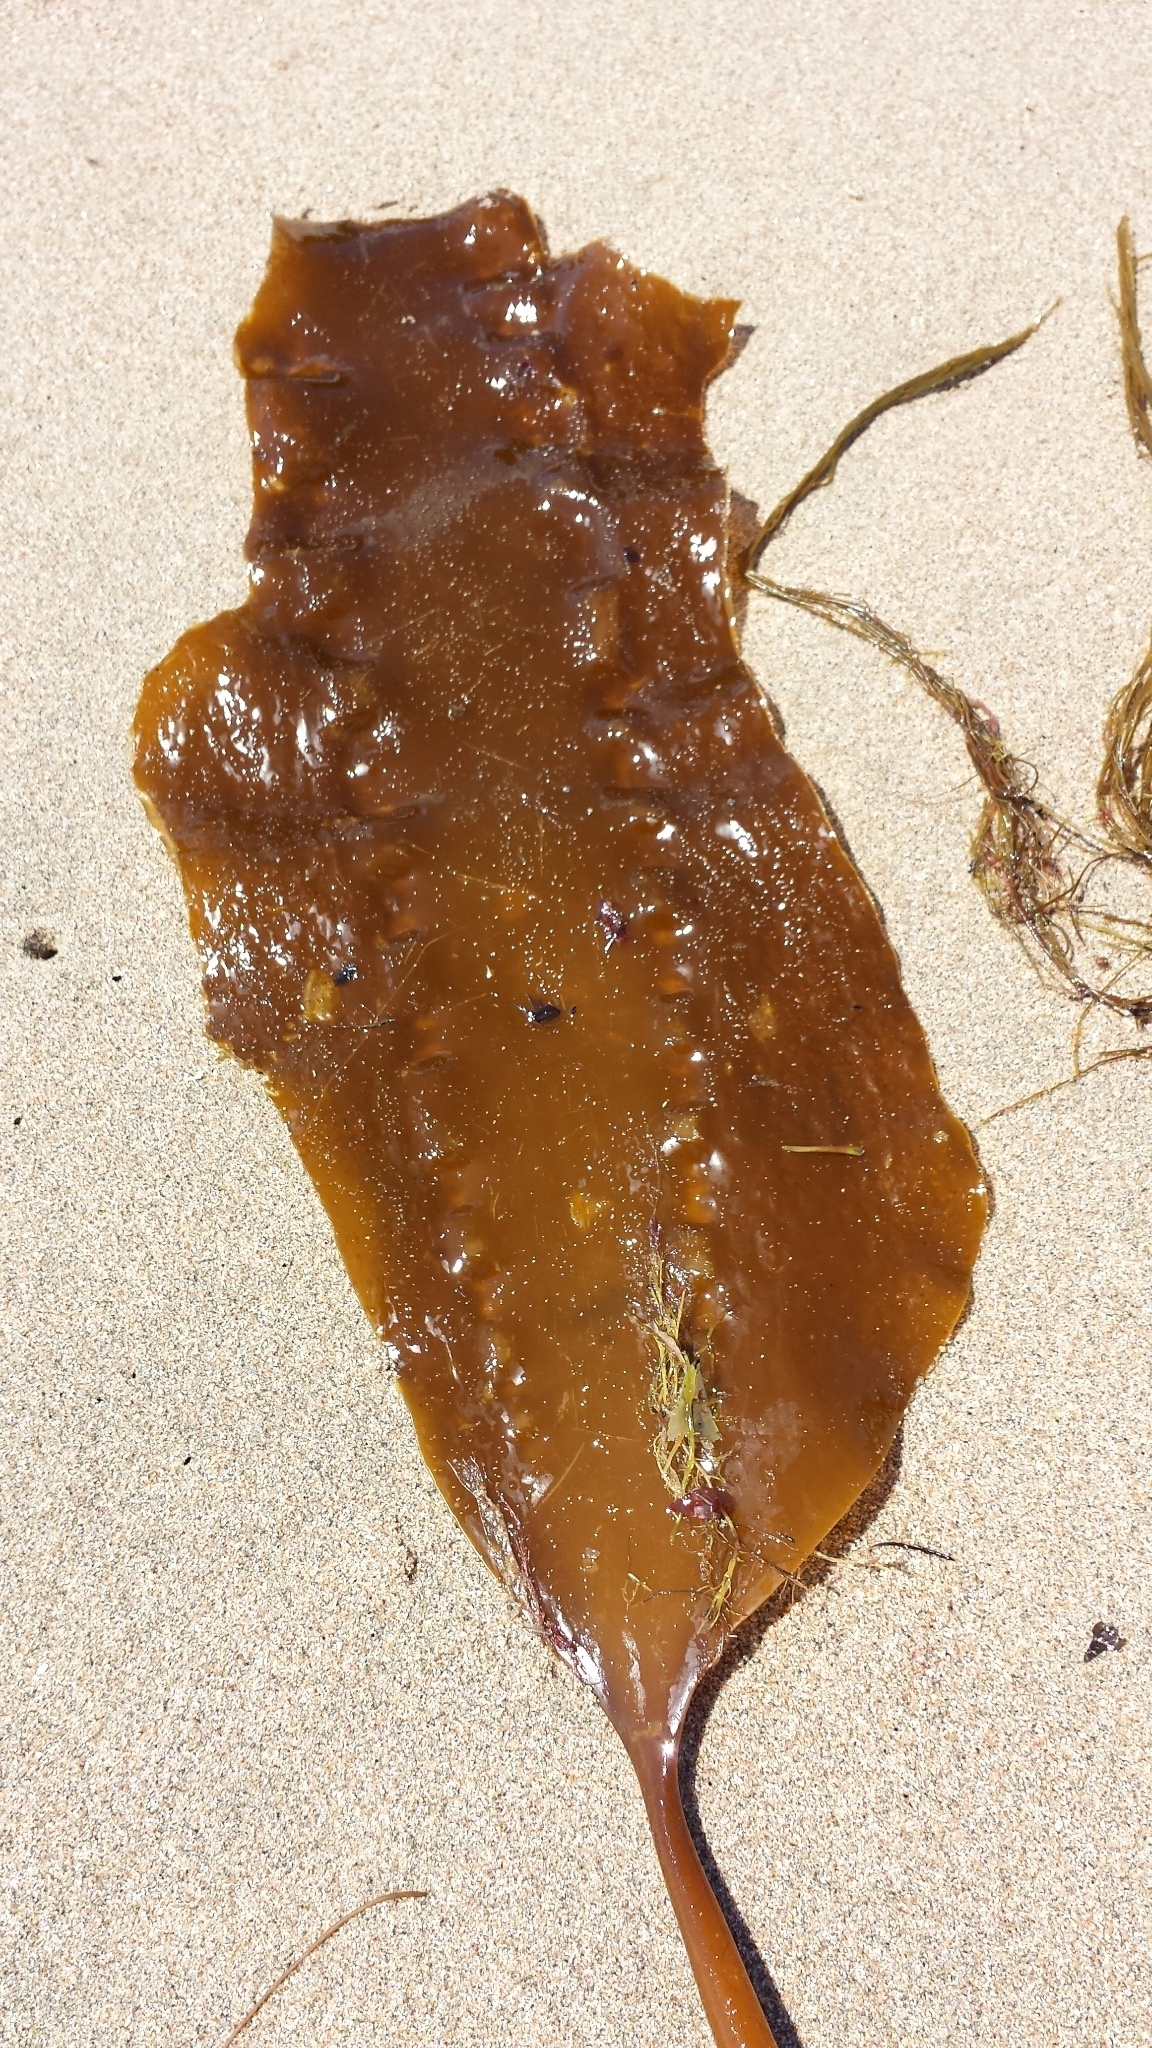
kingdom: Chromista
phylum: Ochrophyta
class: Phaeophyceae
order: Laminariales
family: Laminariaceae
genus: Saccharina
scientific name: Saccharina latissima
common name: Poor man's weather glass
